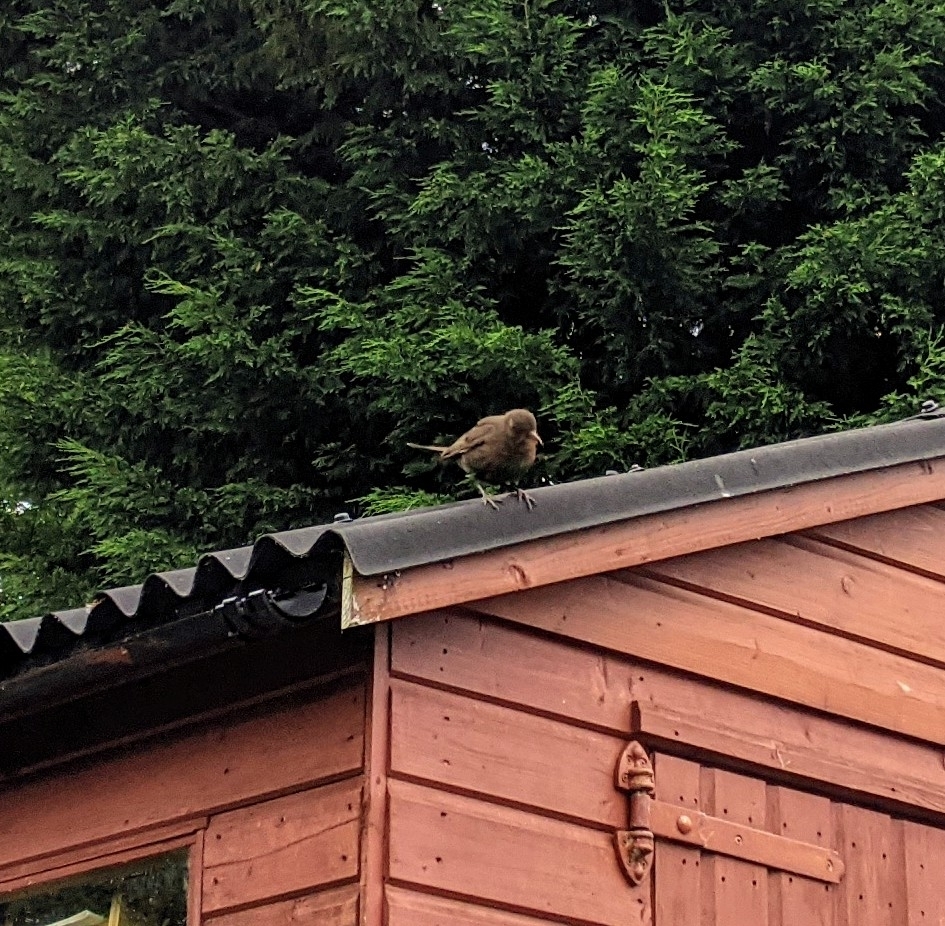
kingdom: Animalia
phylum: Chordata
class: Aves
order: Passeriformes
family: Turdidae
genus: Turdus
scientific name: Turdus merula
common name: Common blackbird
